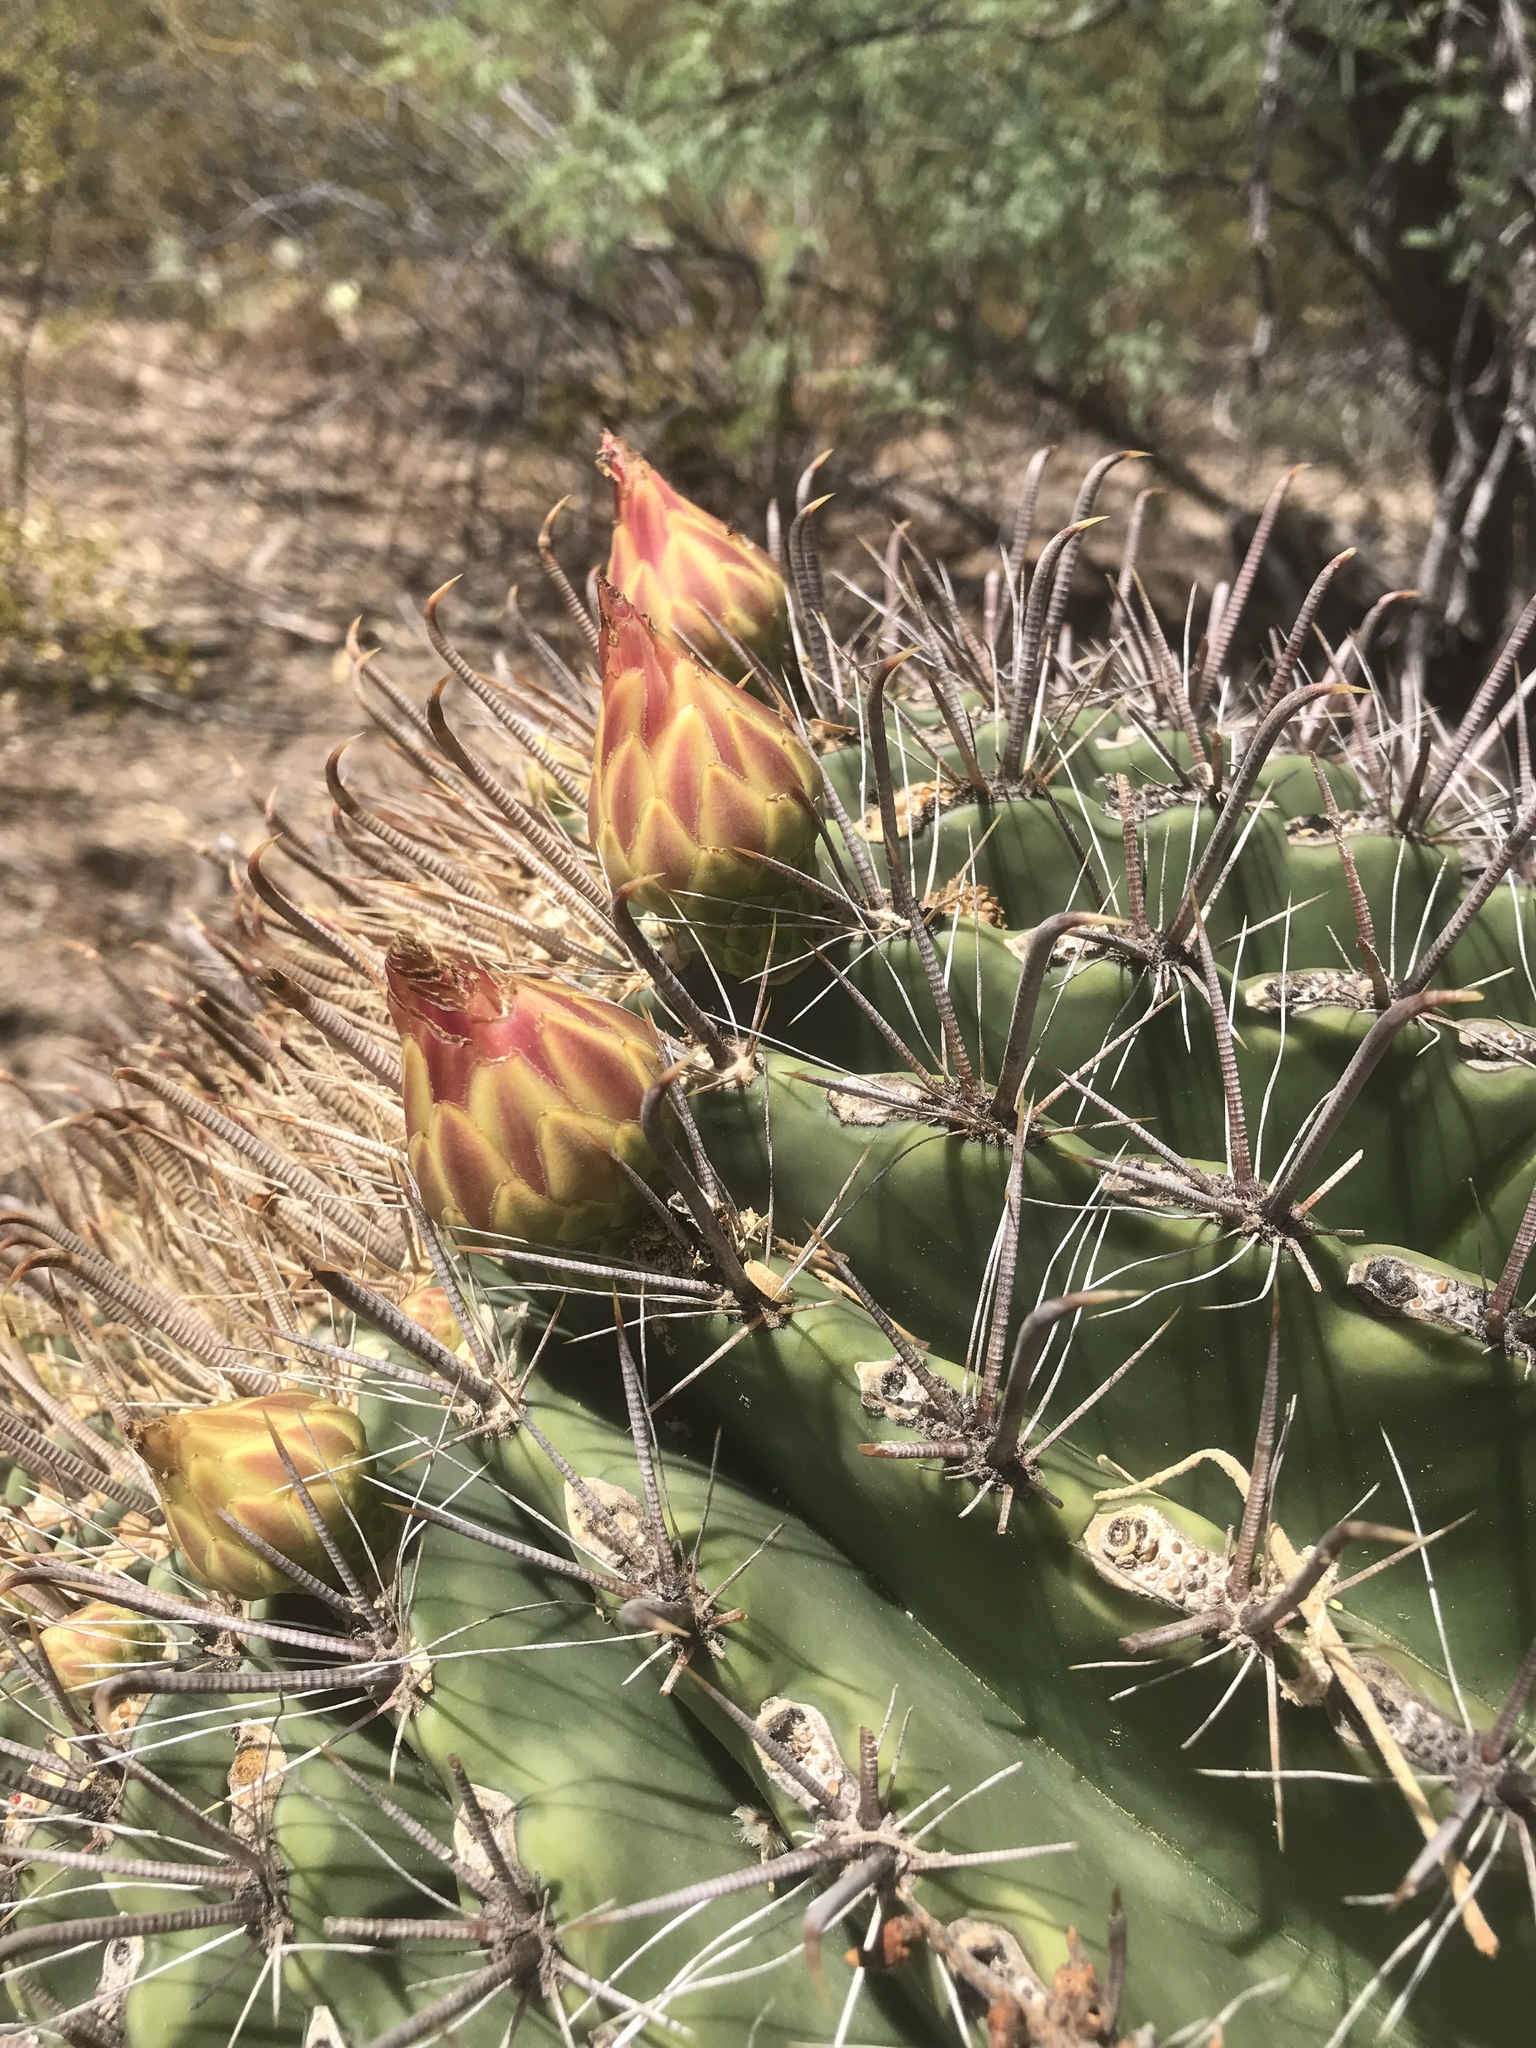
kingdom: Plantae
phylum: Tracheophyta
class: Magnoliopsida
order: Caryophyllales
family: Cactaceae
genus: Ferocactus
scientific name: Ferocactus wislizeni
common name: Candy barrel cactus
